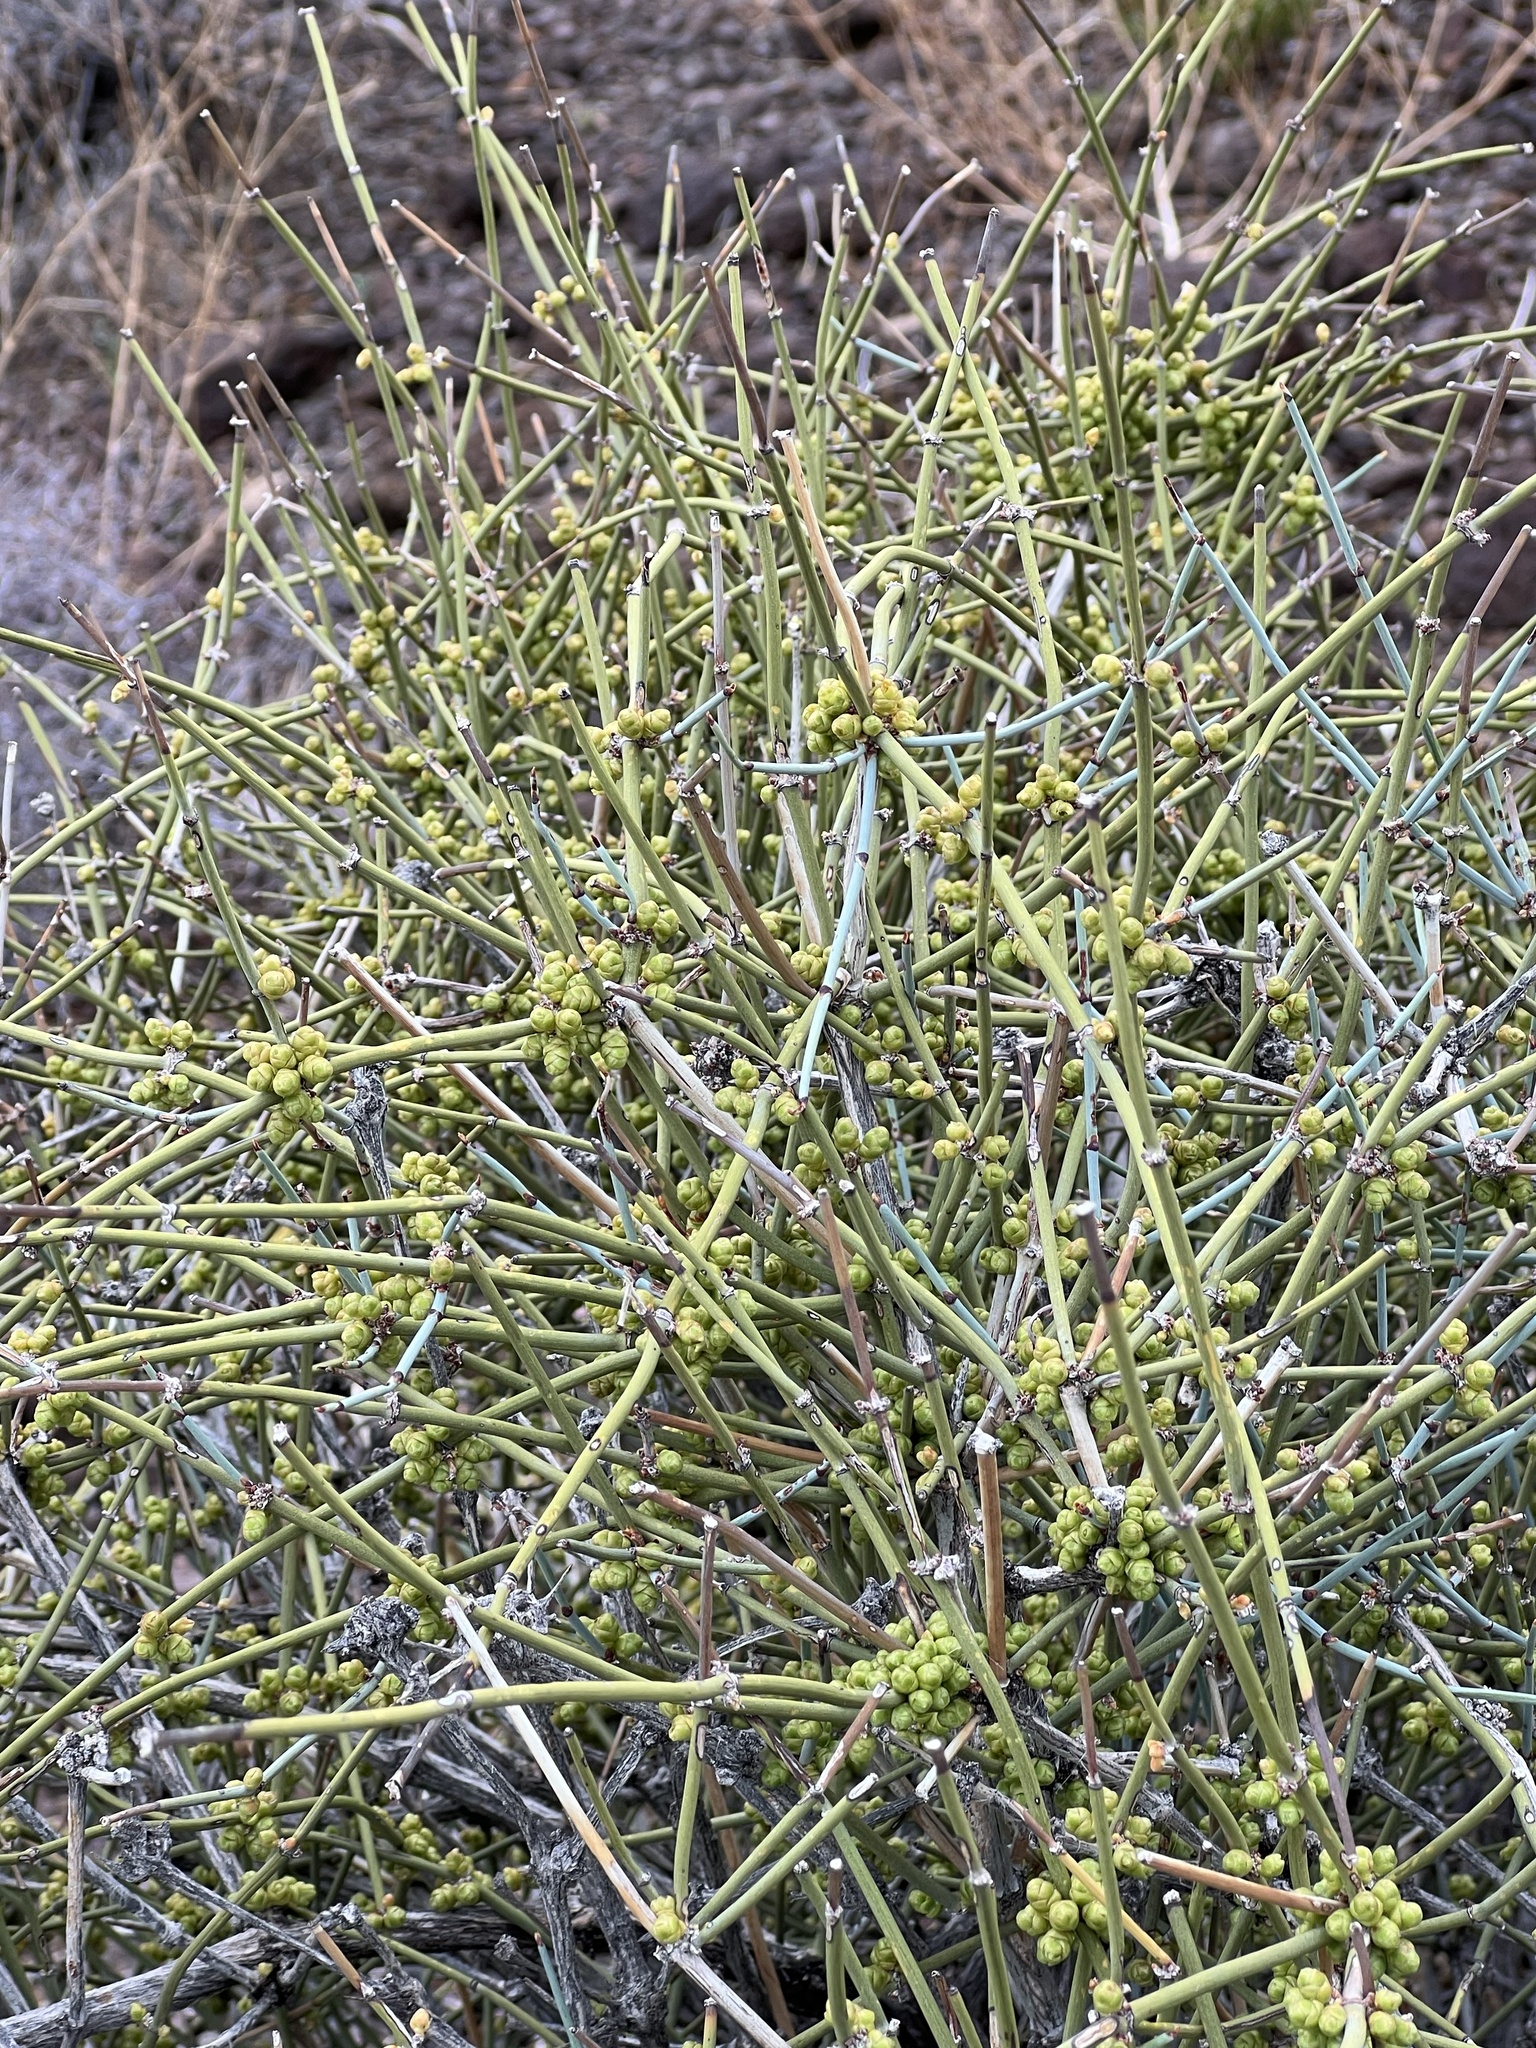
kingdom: Plantae
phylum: Tracheophyta
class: Gnetopsida
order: Ephedrales
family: Ephedraceae
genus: Ephedra
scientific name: Ephedra aspera
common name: Boundary ephedra
